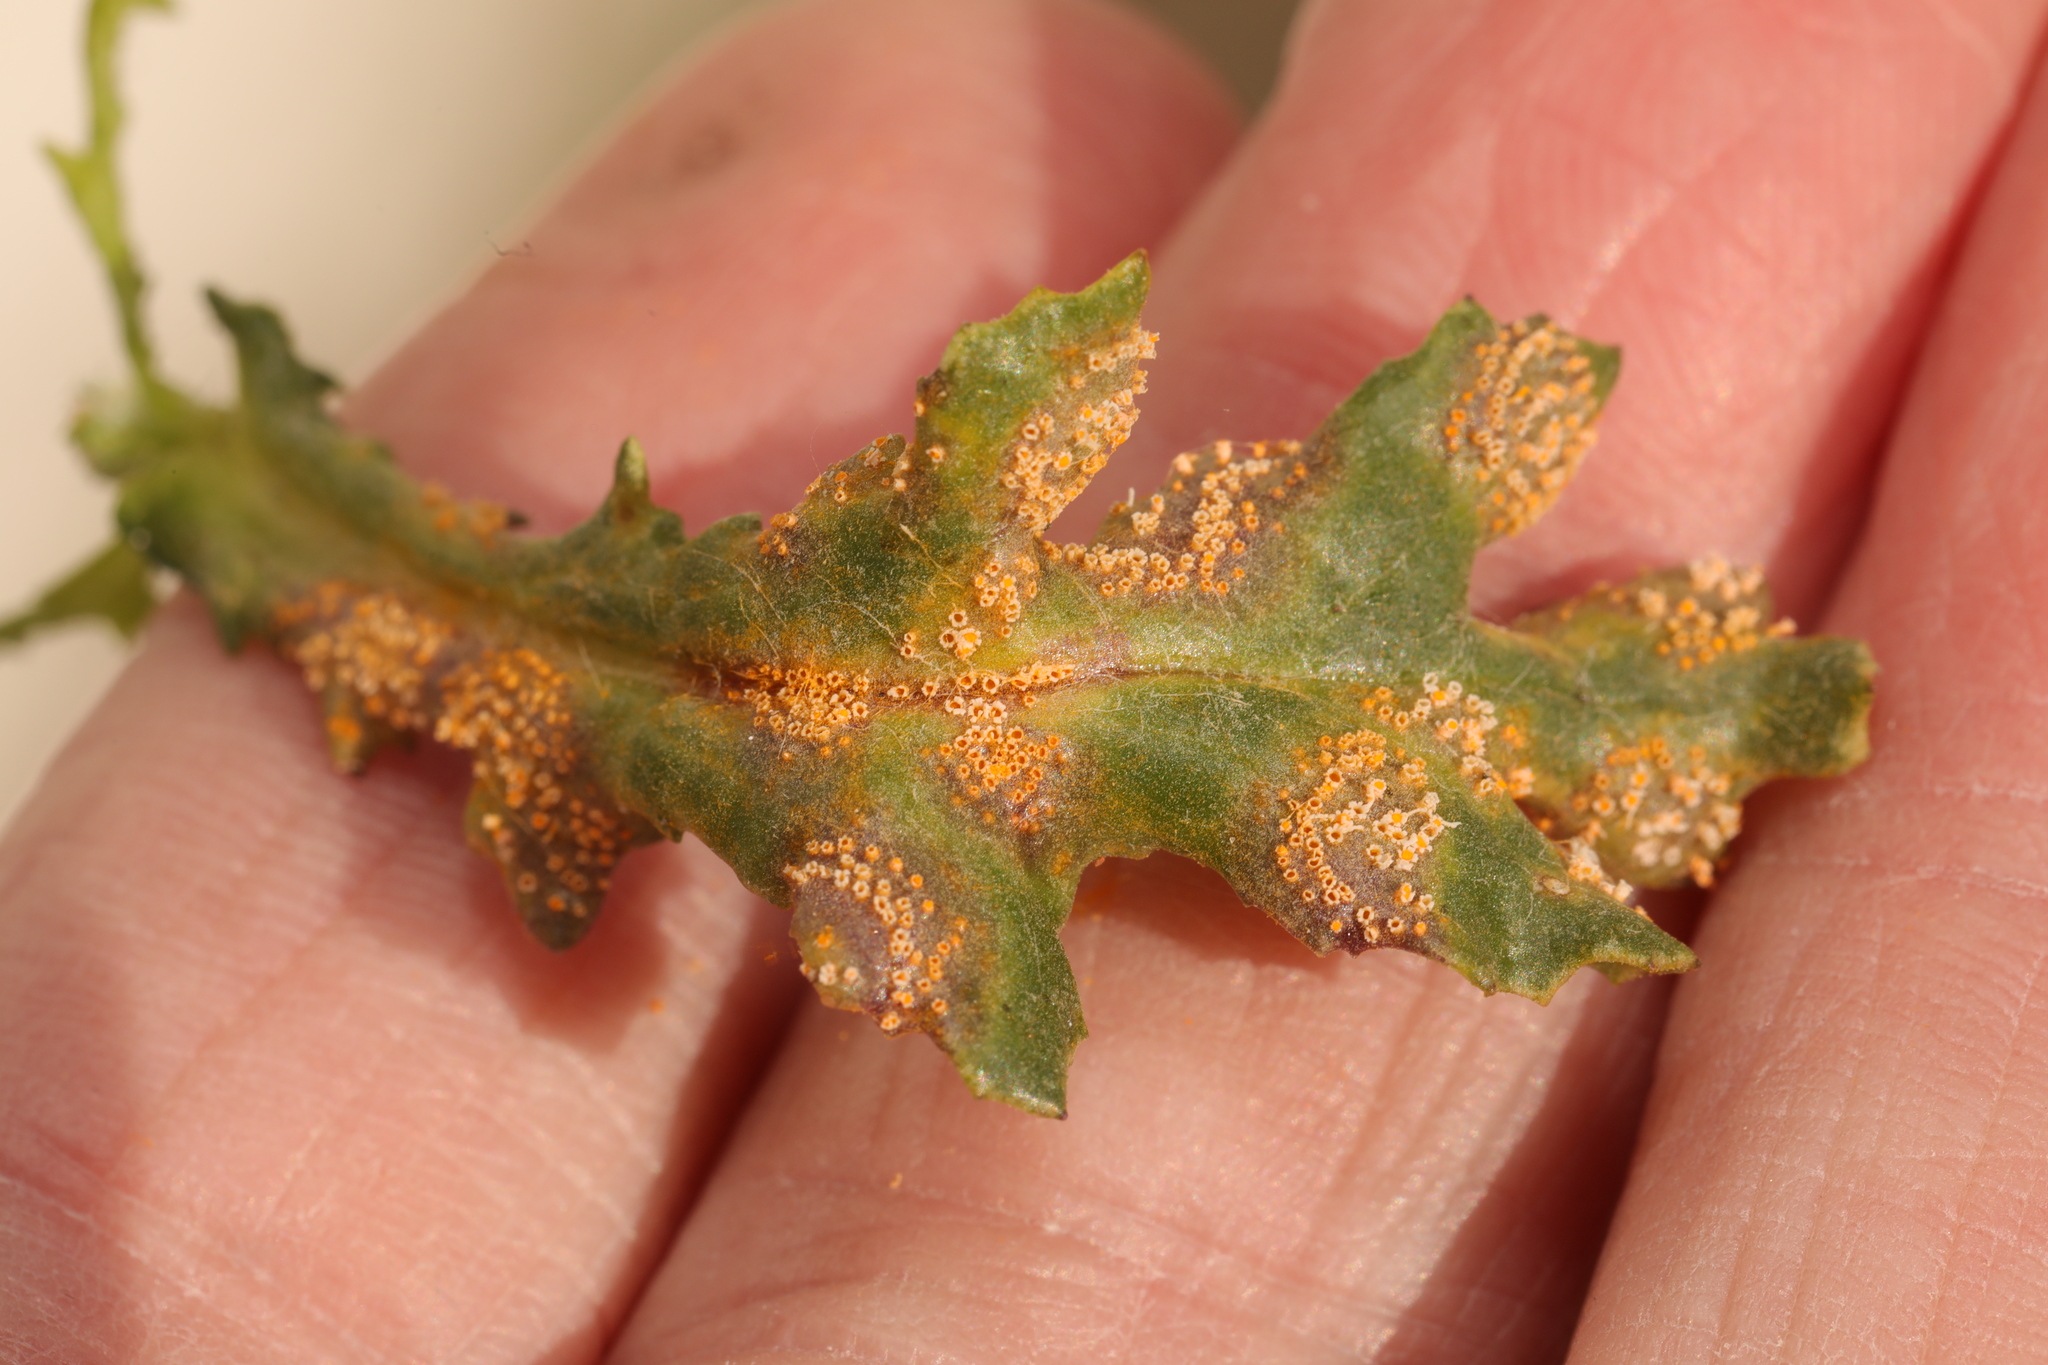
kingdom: Fungi
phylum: Basidiomycota
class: Pucciniomycetes
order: Pucciniales
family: Pucciniaceae
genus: Puccinia
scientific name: Puccinia lagenophorae
